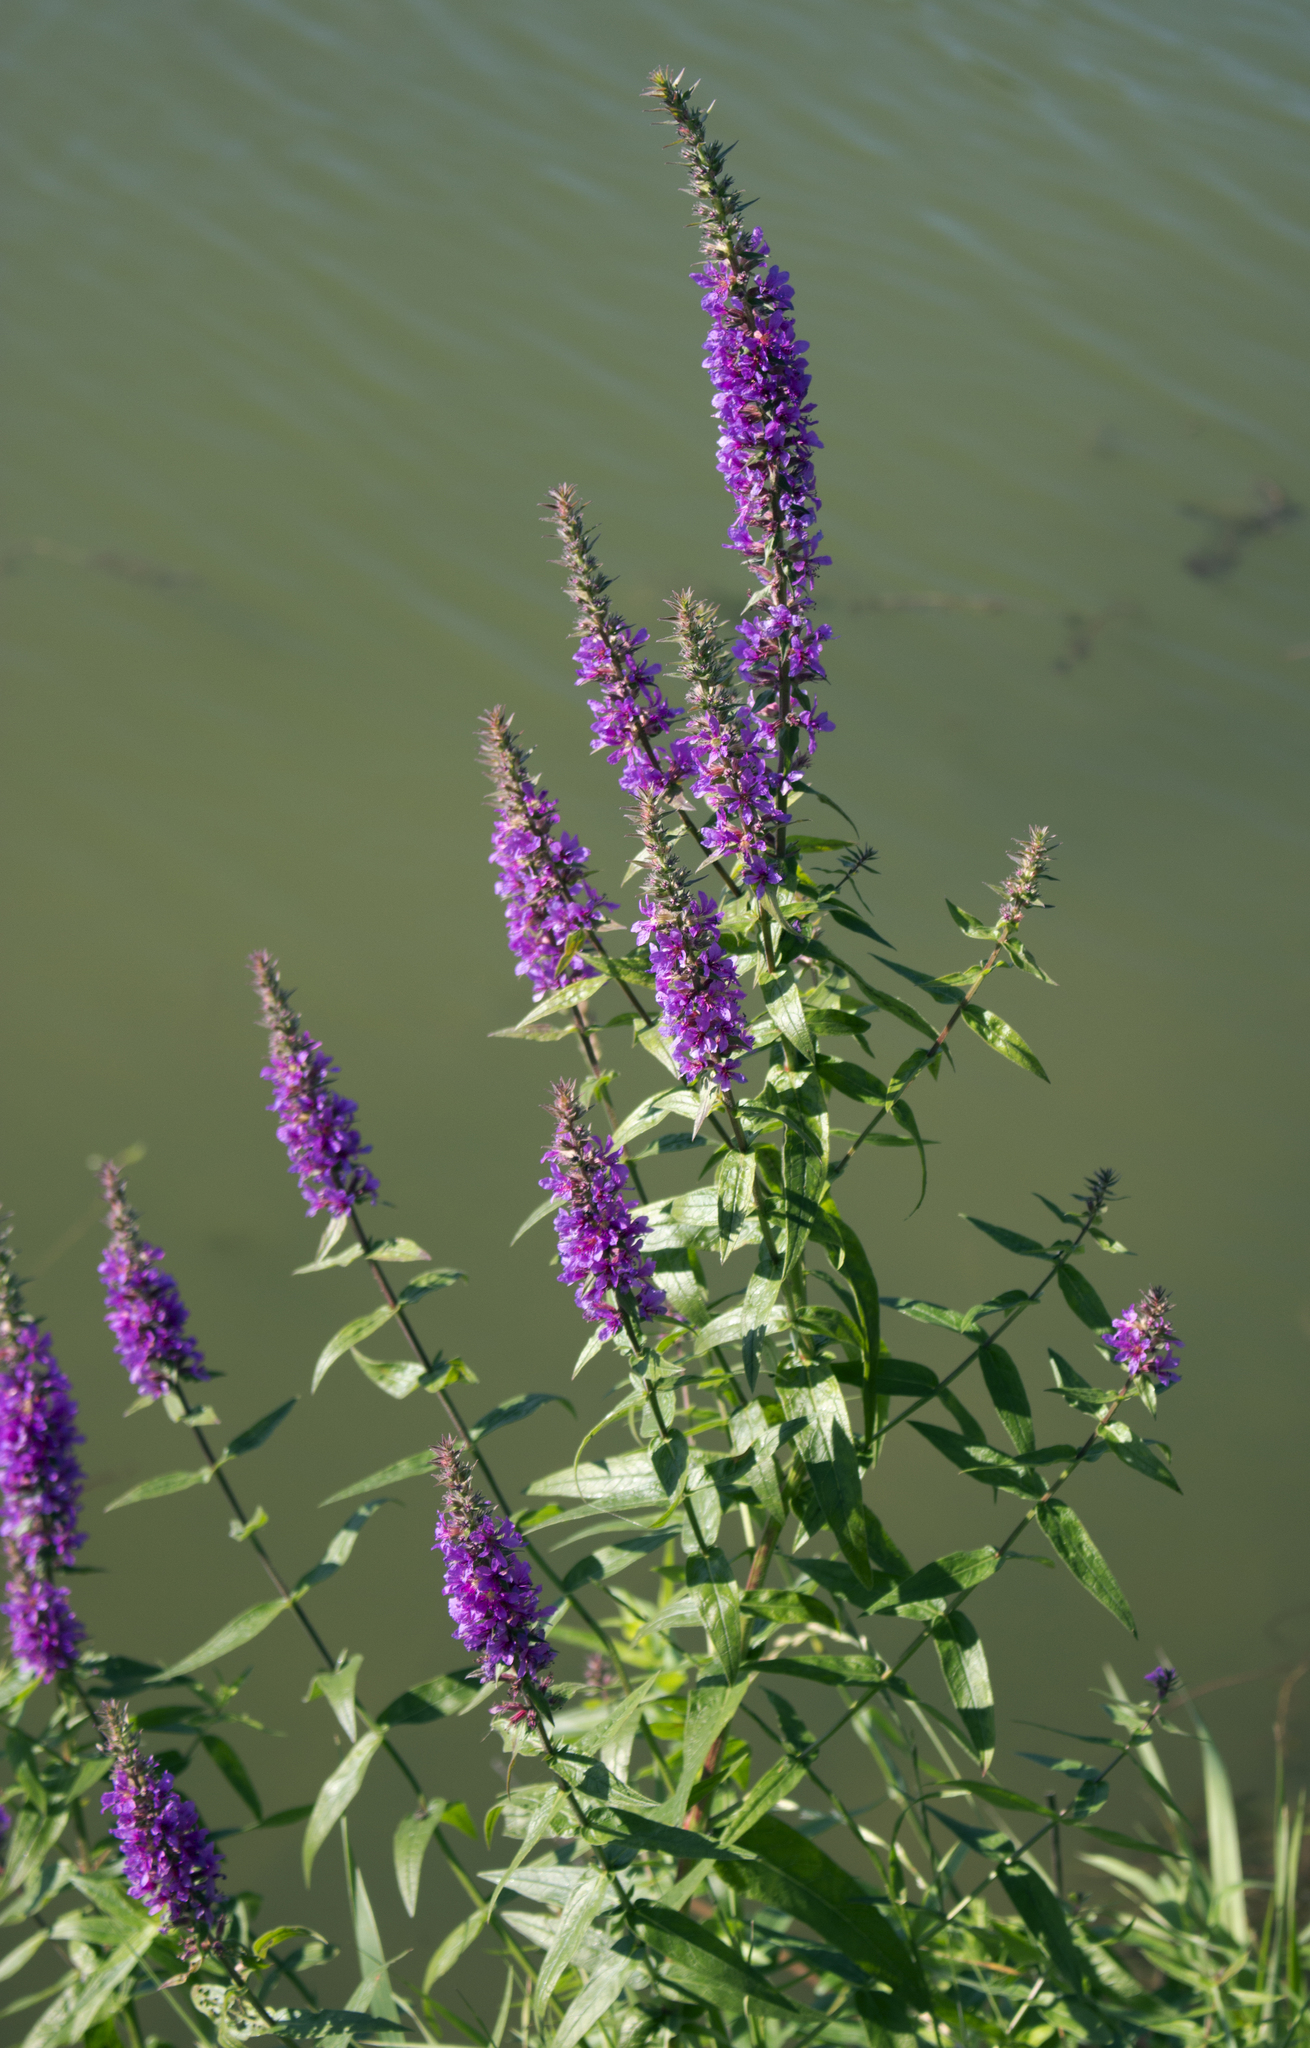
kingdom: Plantae
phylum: Tracheophyta
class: Magnoliopsida
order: Myrtales
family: Lythraceae
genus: Lythrum
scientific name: Lythrum salicaria
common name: Purple loosestrife
